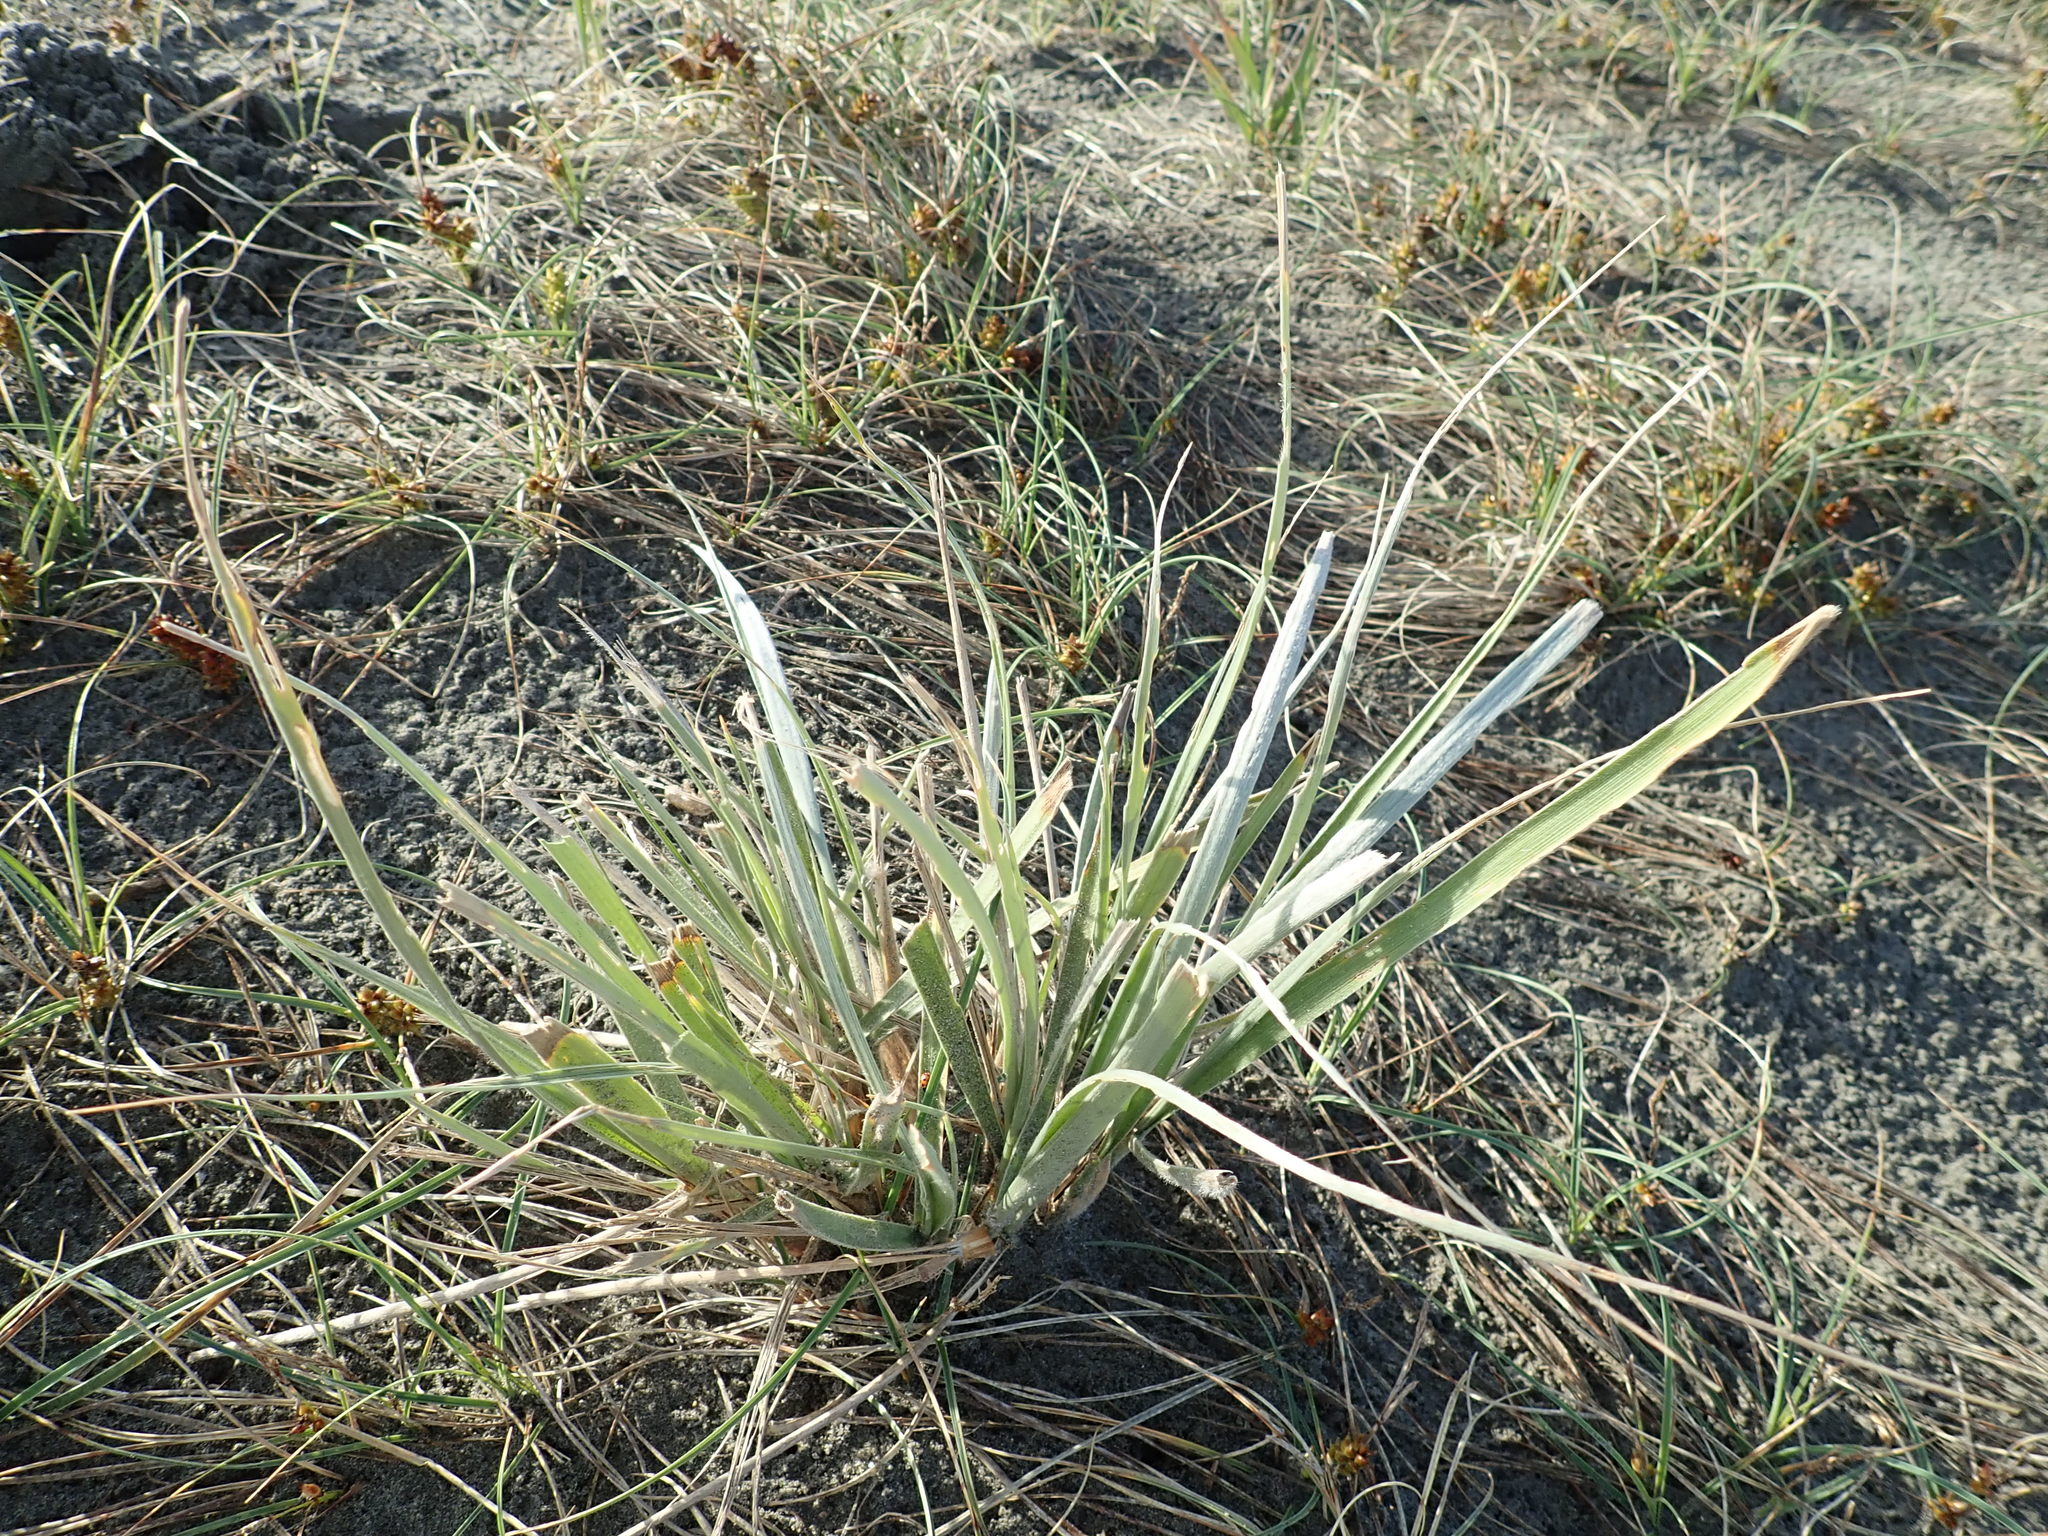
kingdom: Plantae
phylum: Tracheophyta
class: Liliopsida
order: Poales
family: Poaceae
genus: Spinifex
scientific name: Spinifex sericeus
